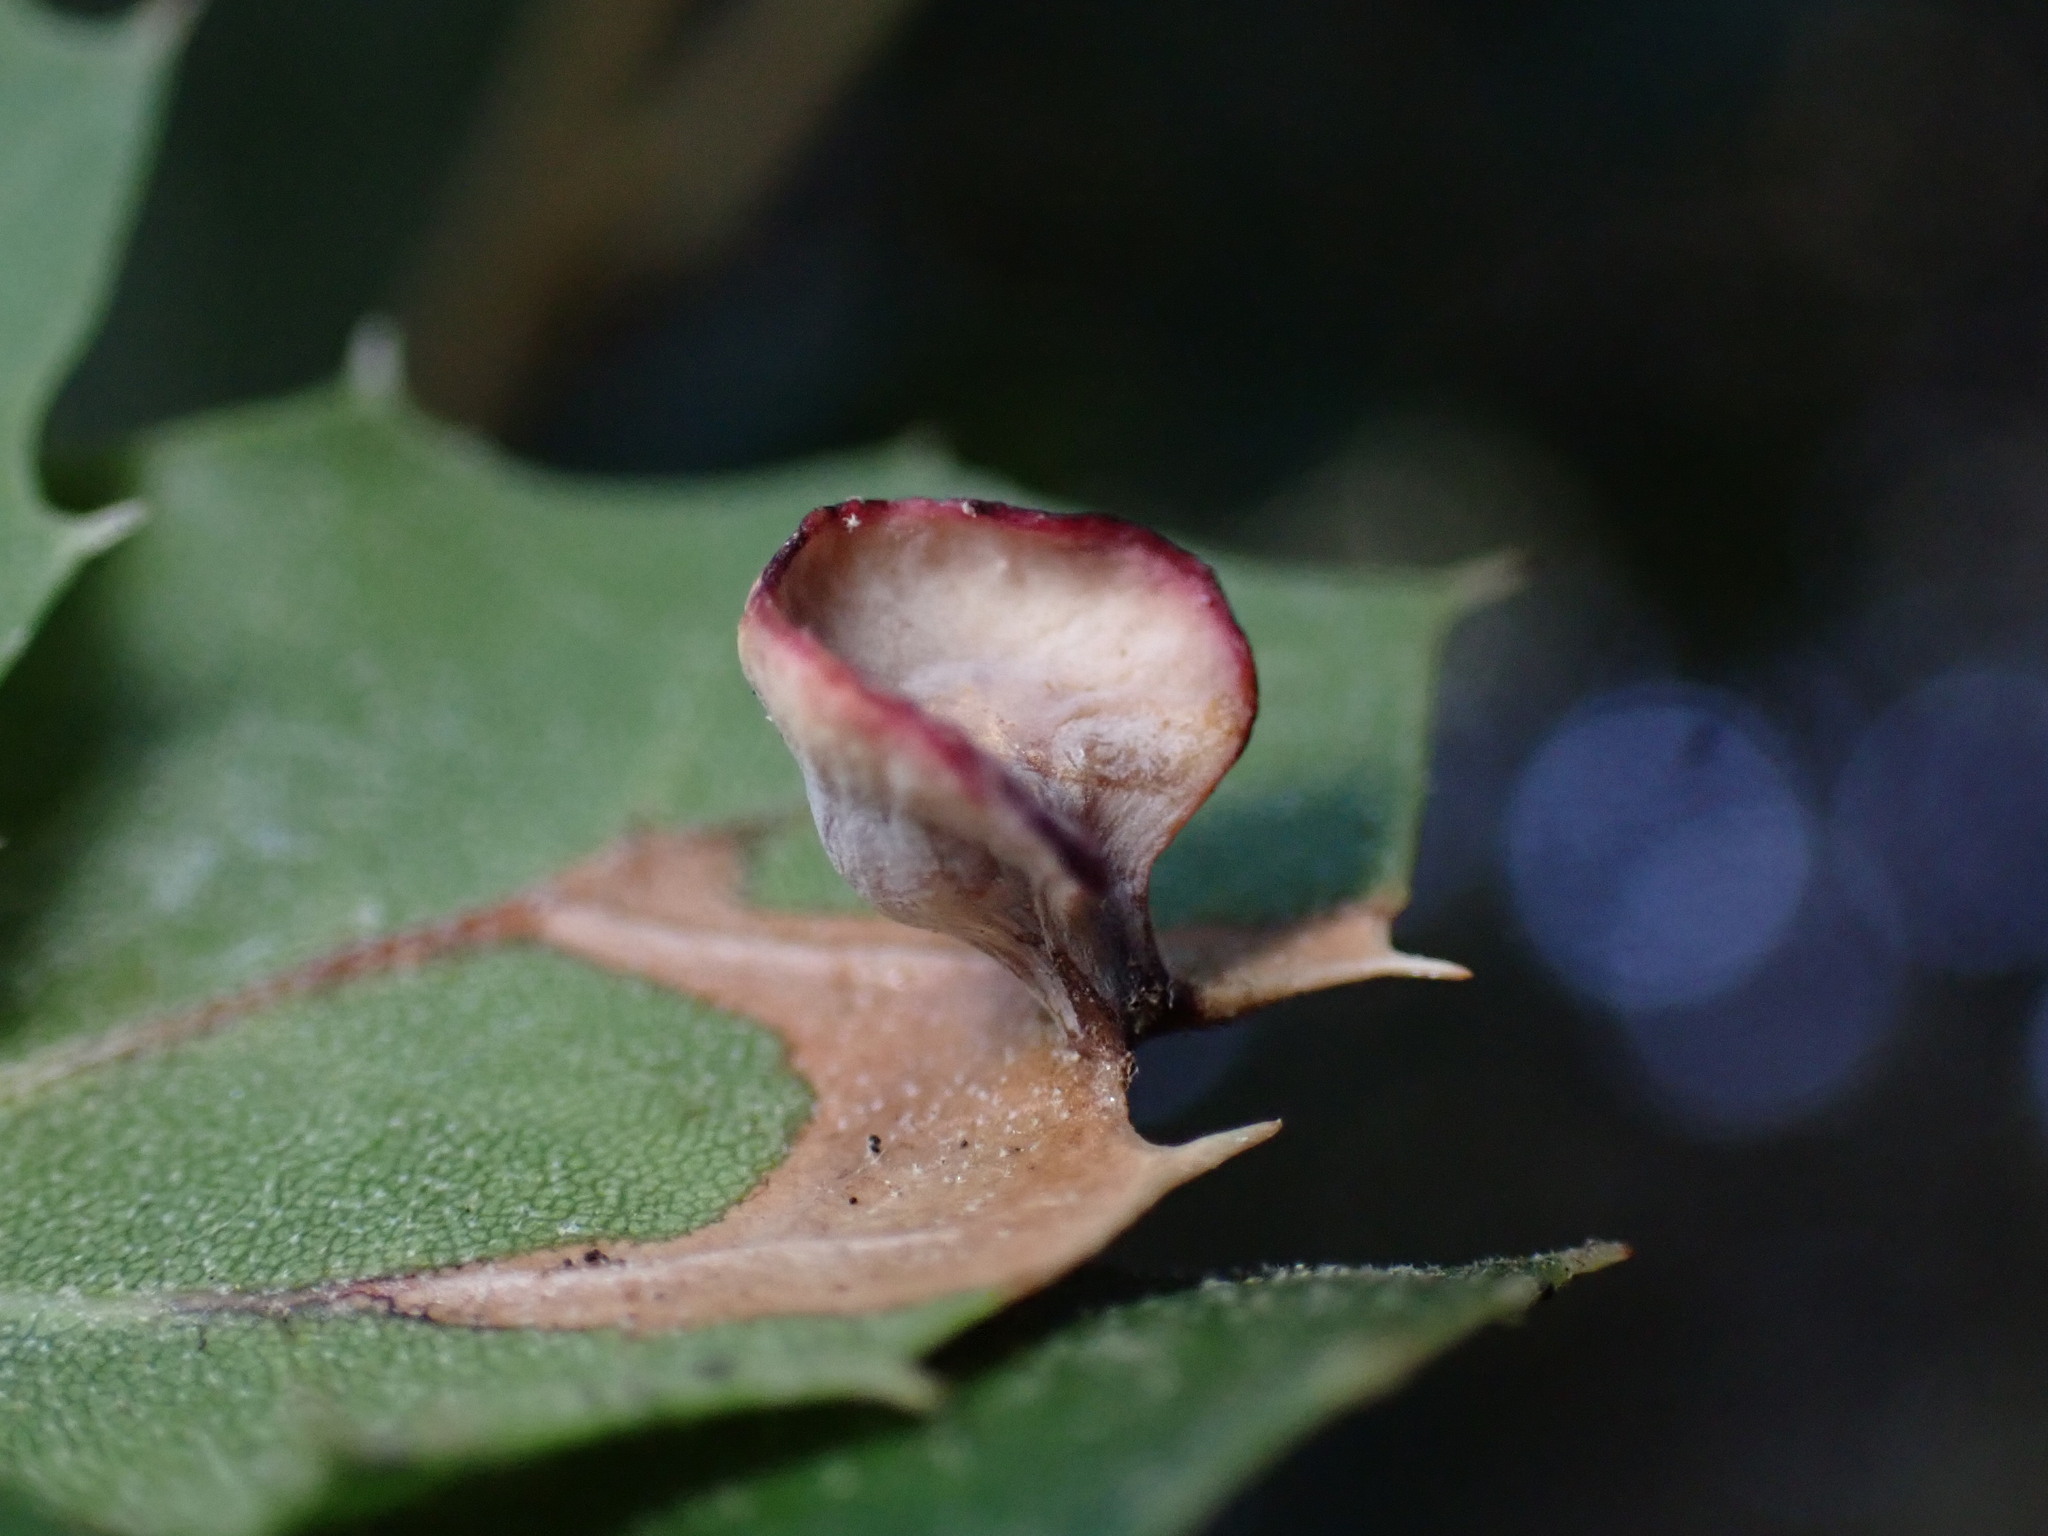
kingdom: Animalia
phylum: Arthropoda
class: Insecta
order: Hymenoptera
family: Cynipidae
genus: Amphibolips
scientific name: Amphibolips quercuspomiformis
